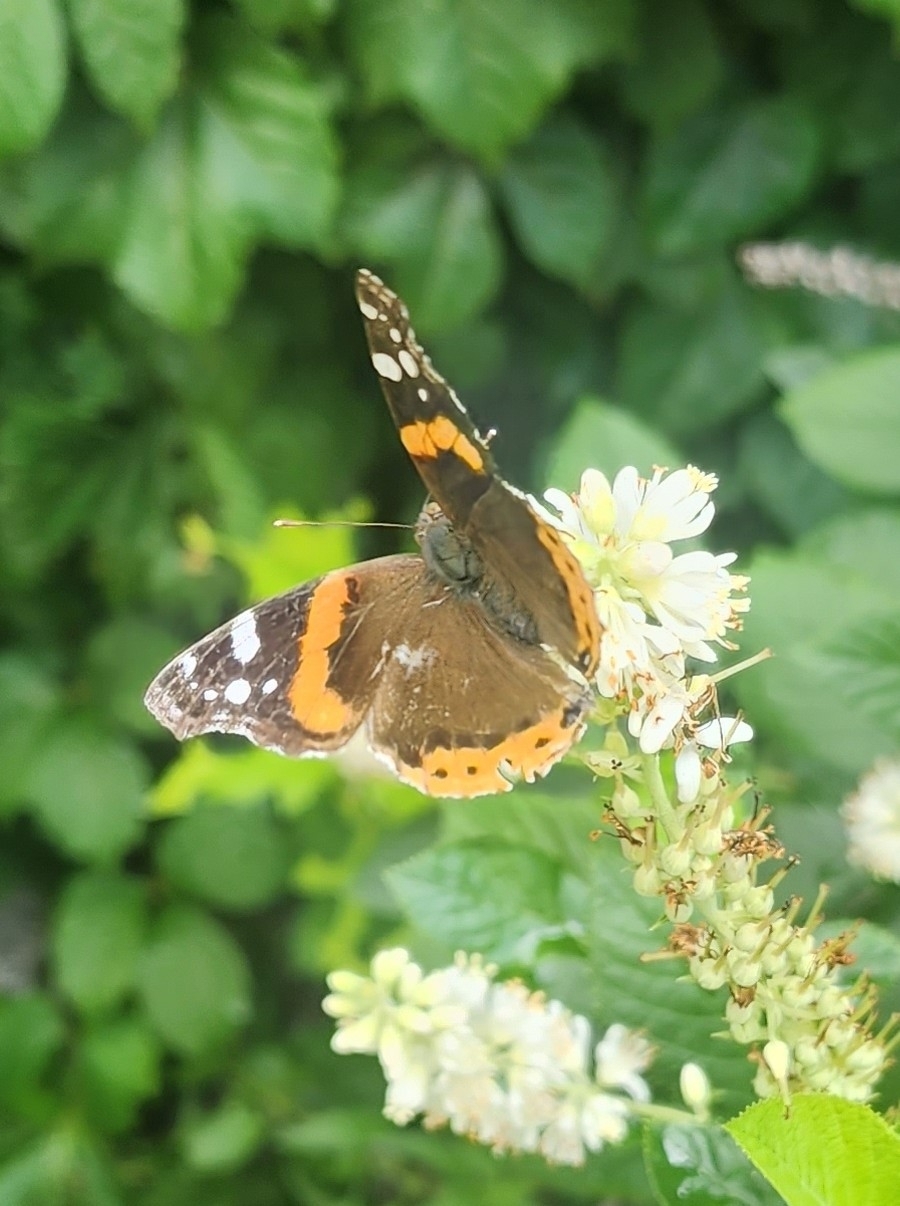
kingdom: Animalia
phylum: Arthropoda
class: Insecta
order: Lepidoptera
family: Nymphalidae
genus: Vanessa
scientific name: Vanessa atalanta
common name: Red admiral
